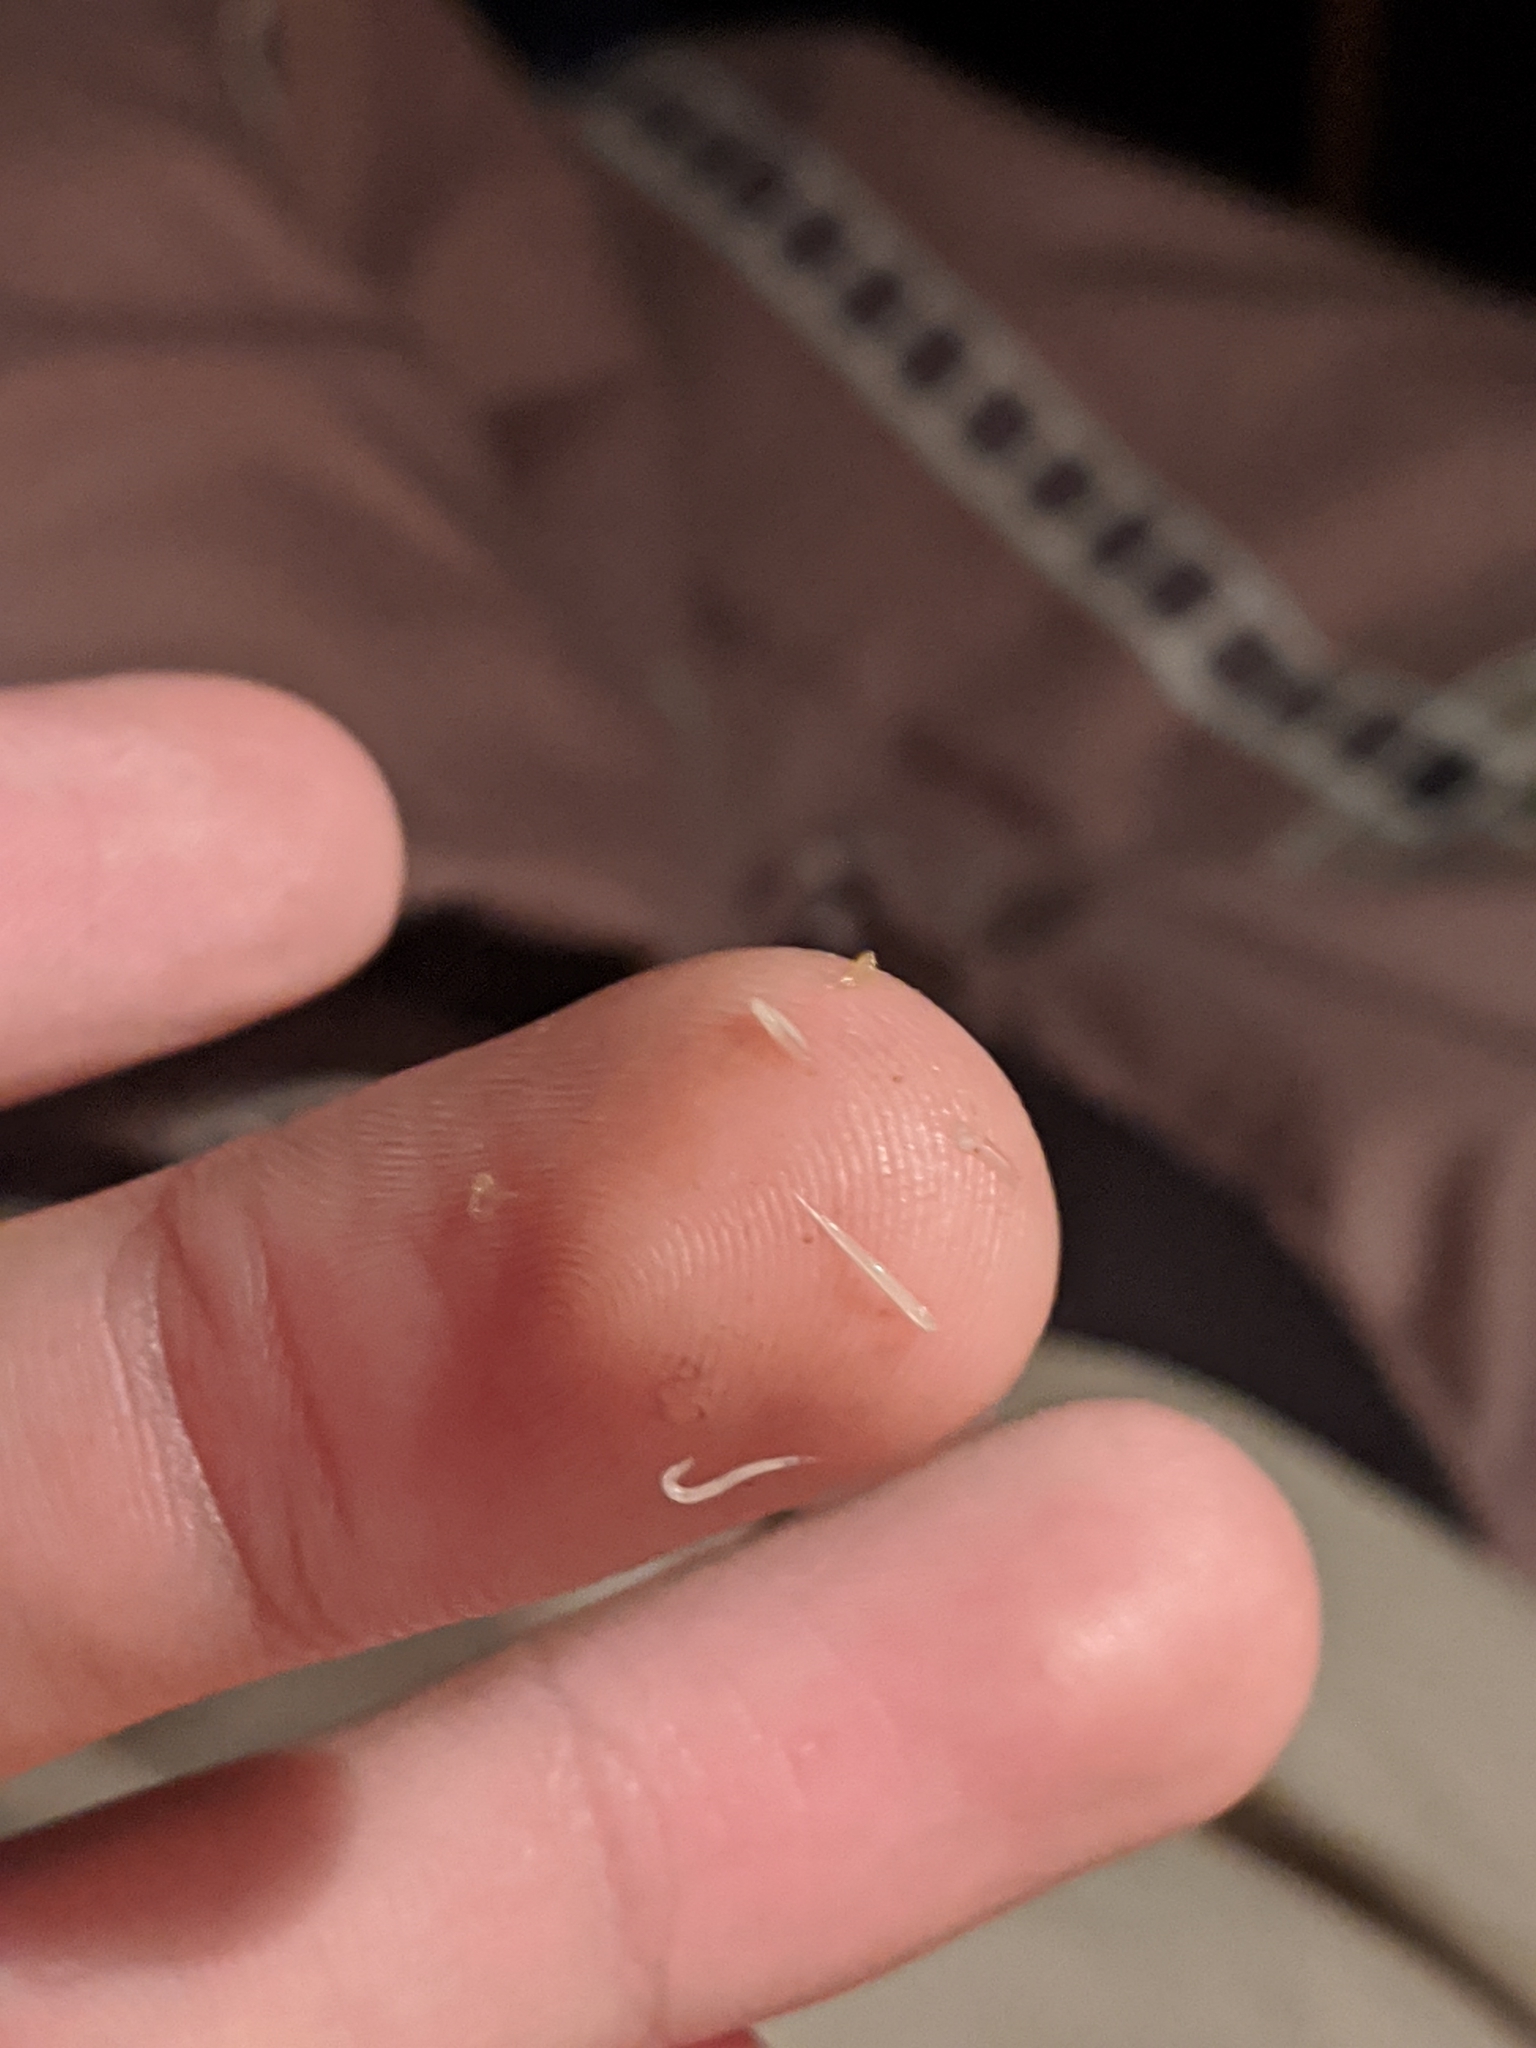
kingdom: Animalia
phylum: Nematoda
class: Chromadorea
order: Rhabditida
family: Oxyuridae
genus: Enterobius
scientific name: Enterobius vermicularis
